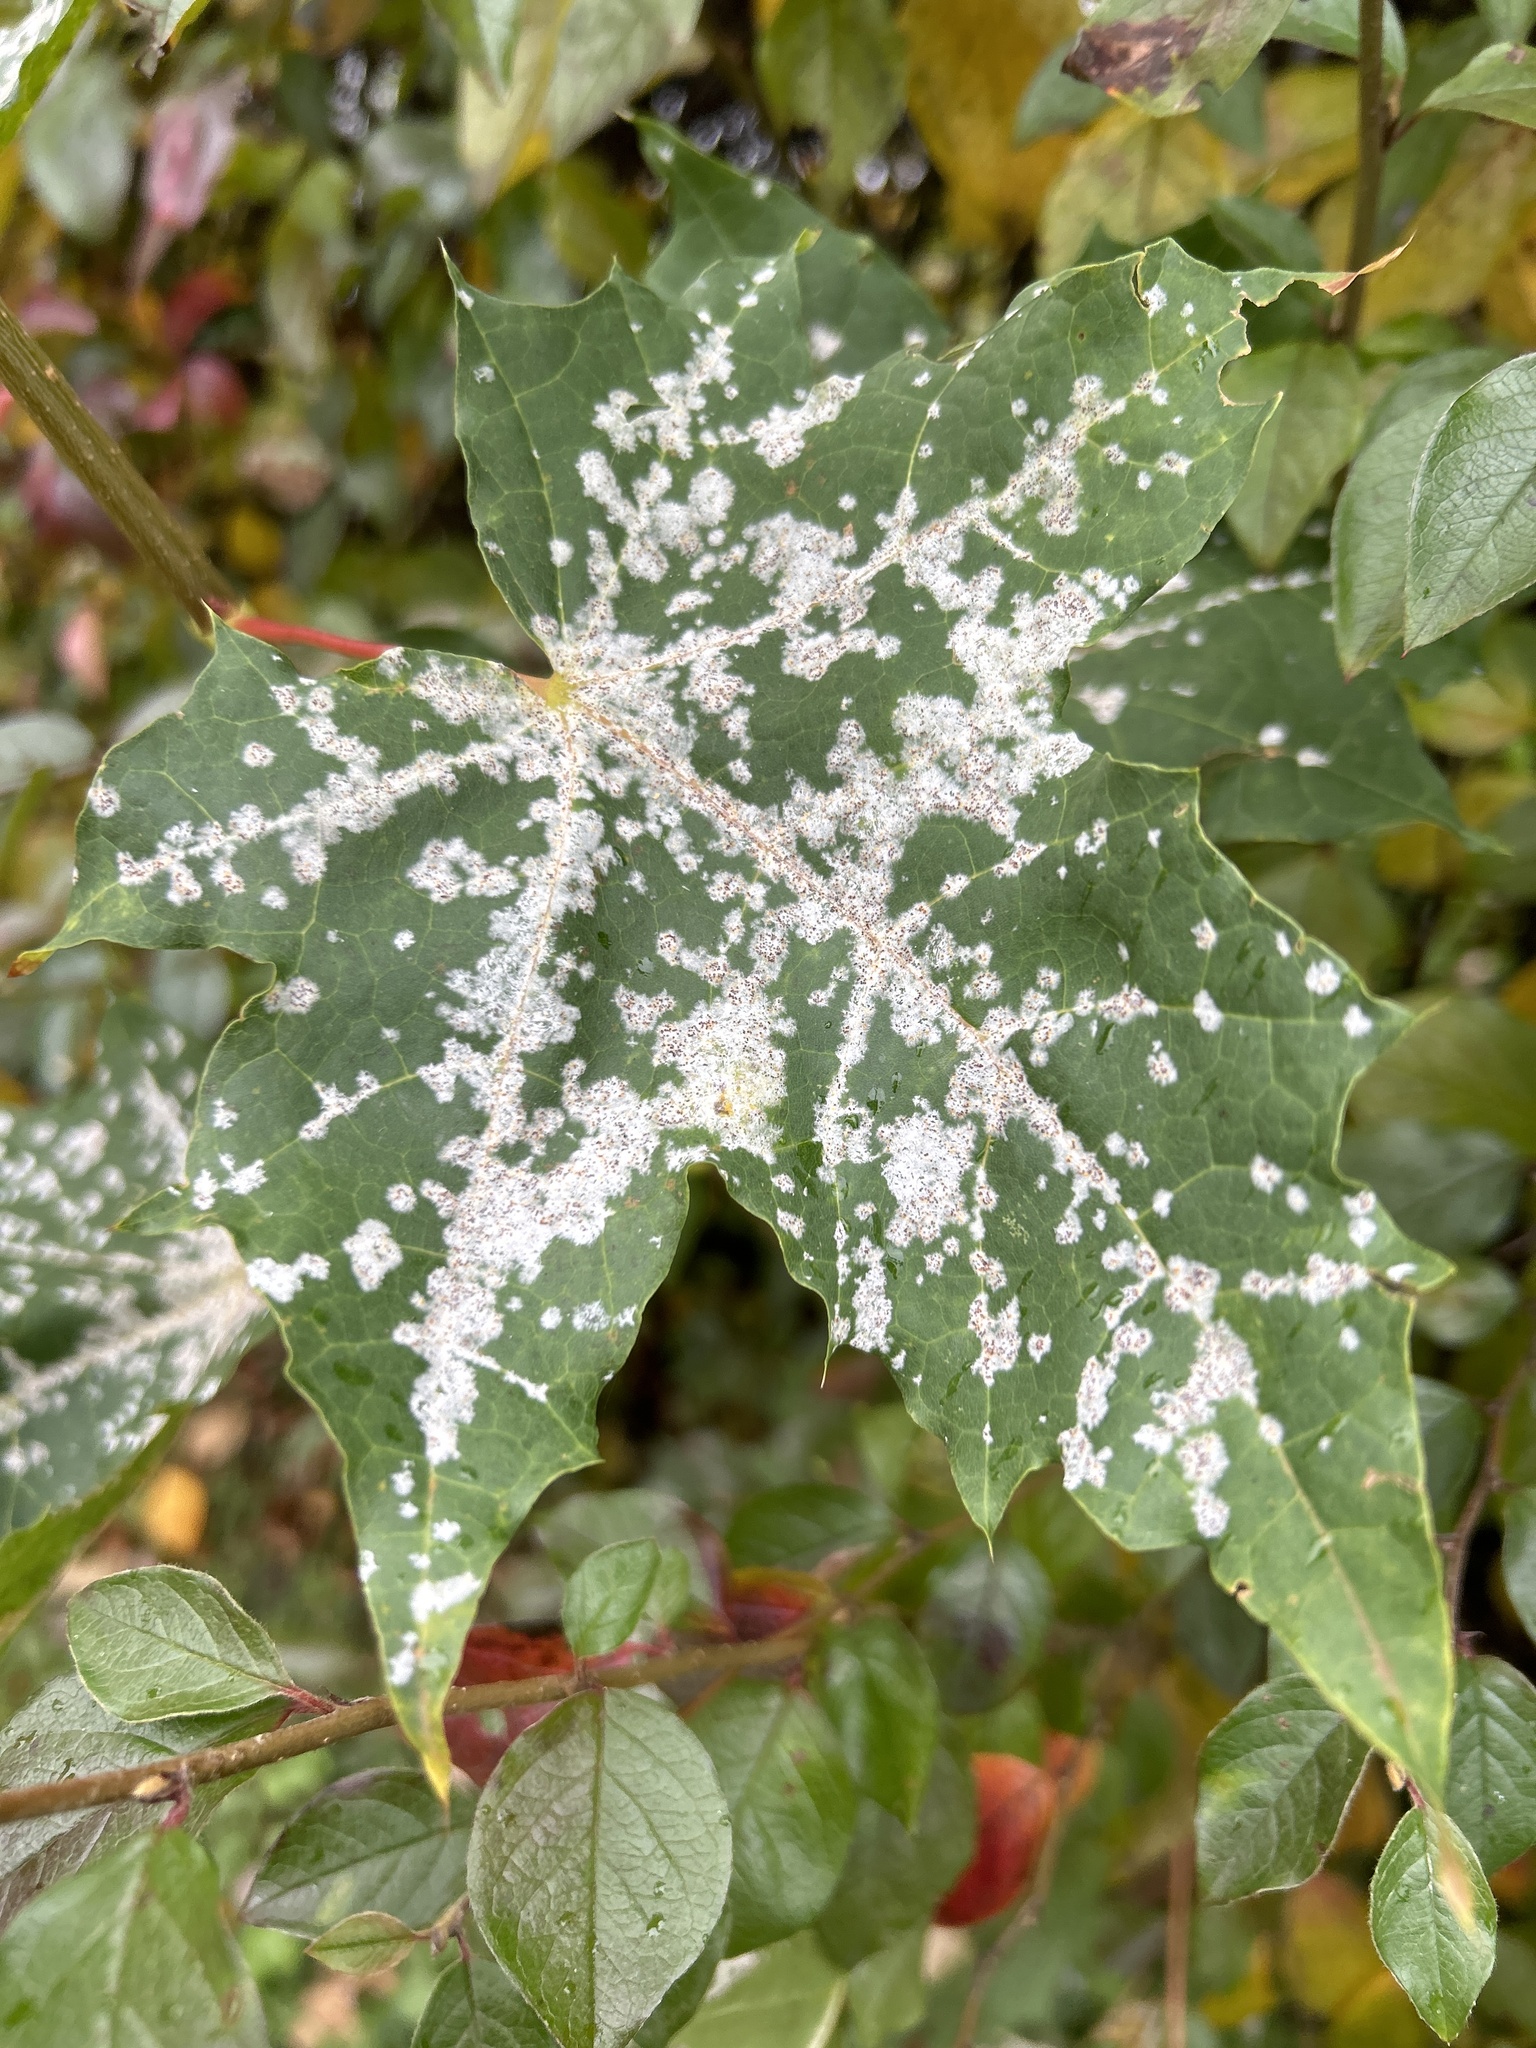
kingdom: Fungi
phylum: Ascomycota
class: Leotiomycetes
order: Helotiales
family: Erysiphaceae
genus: Sawadaea
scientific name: Sawadaea tulasnei
